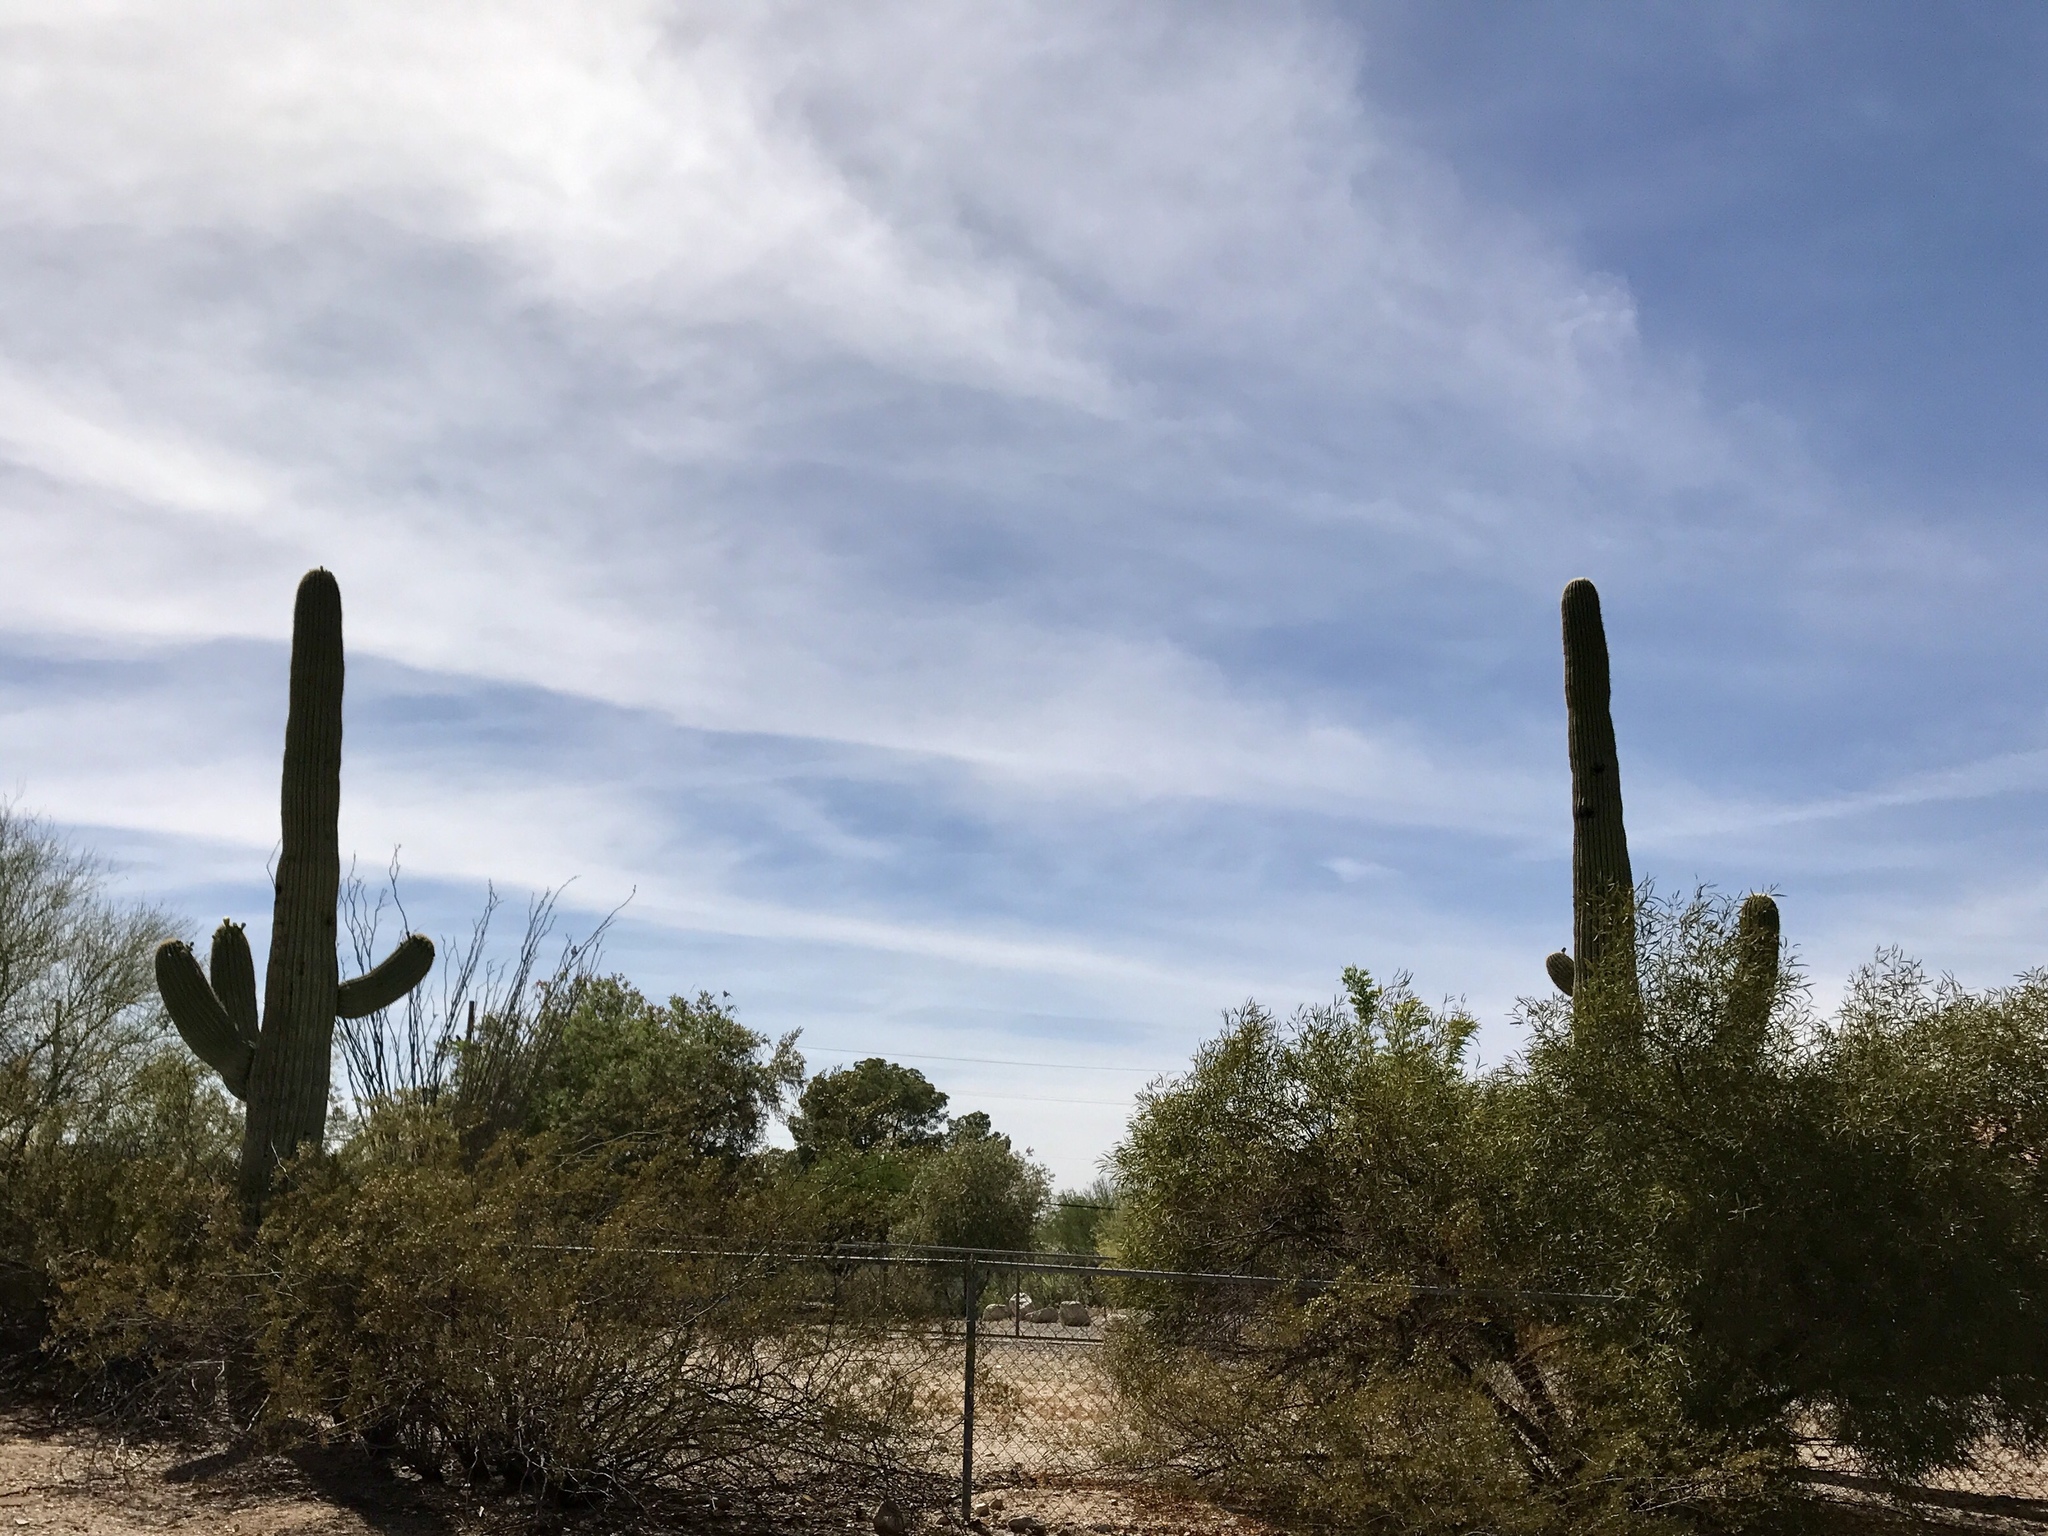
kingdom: Plantae
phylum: Tracheophyta
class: Magnoliopsida
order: Caryophyllales
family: Cactaceae
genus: Carnegiea
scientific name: Carnegiea gigantea
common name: Saguaro
